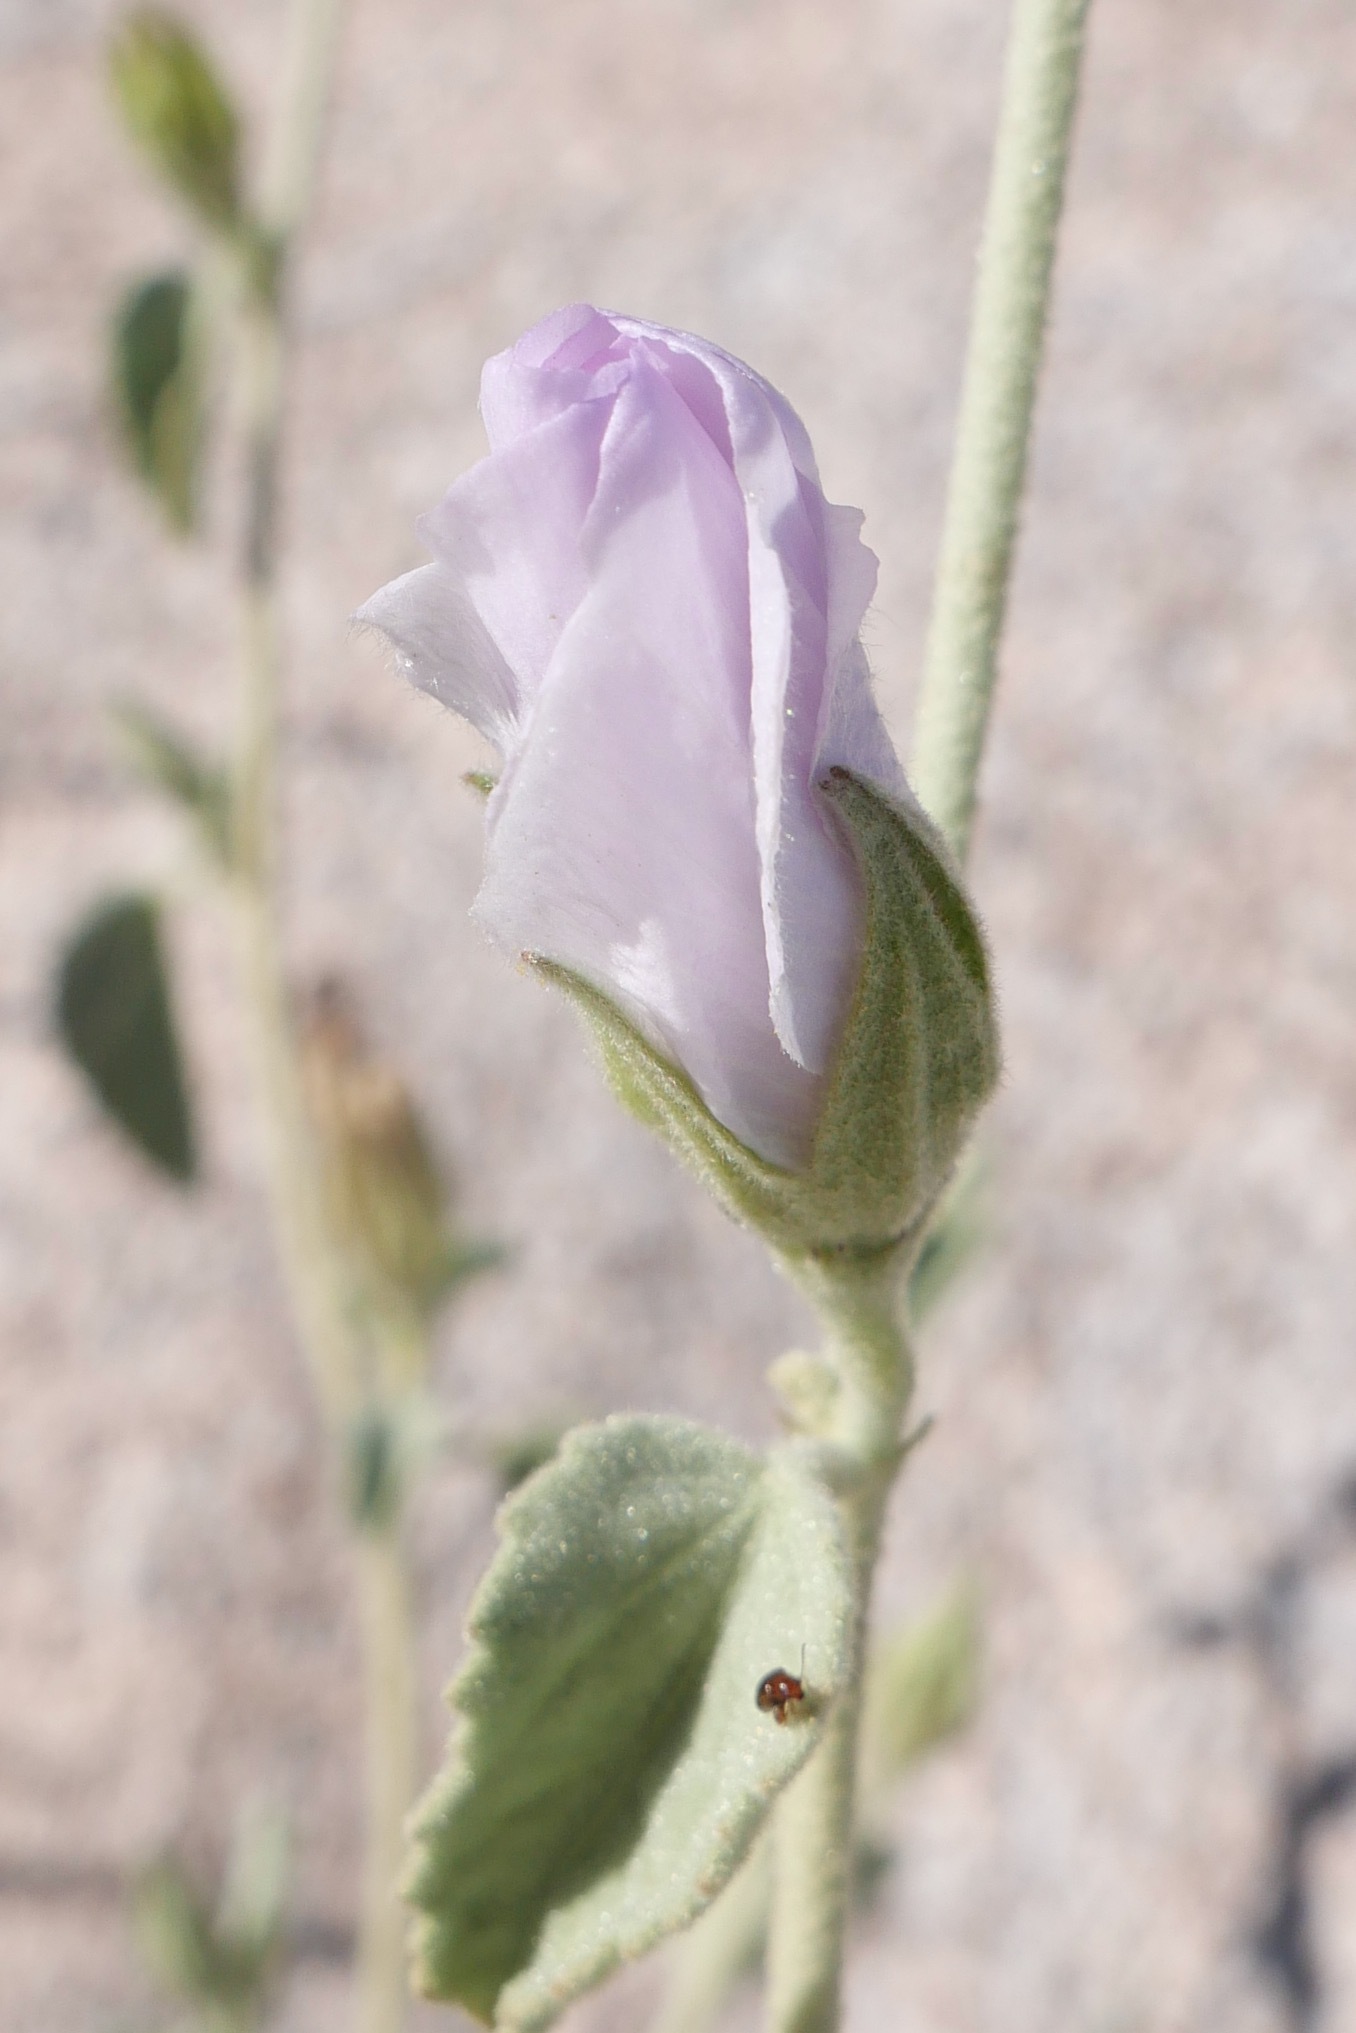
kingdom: Plantae
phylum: Tracheophyta
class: Magnoliopsida
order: Malvales
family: Malvaceae
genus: Hibiscus
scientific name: Hibiscus denudatus
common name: Paleface
